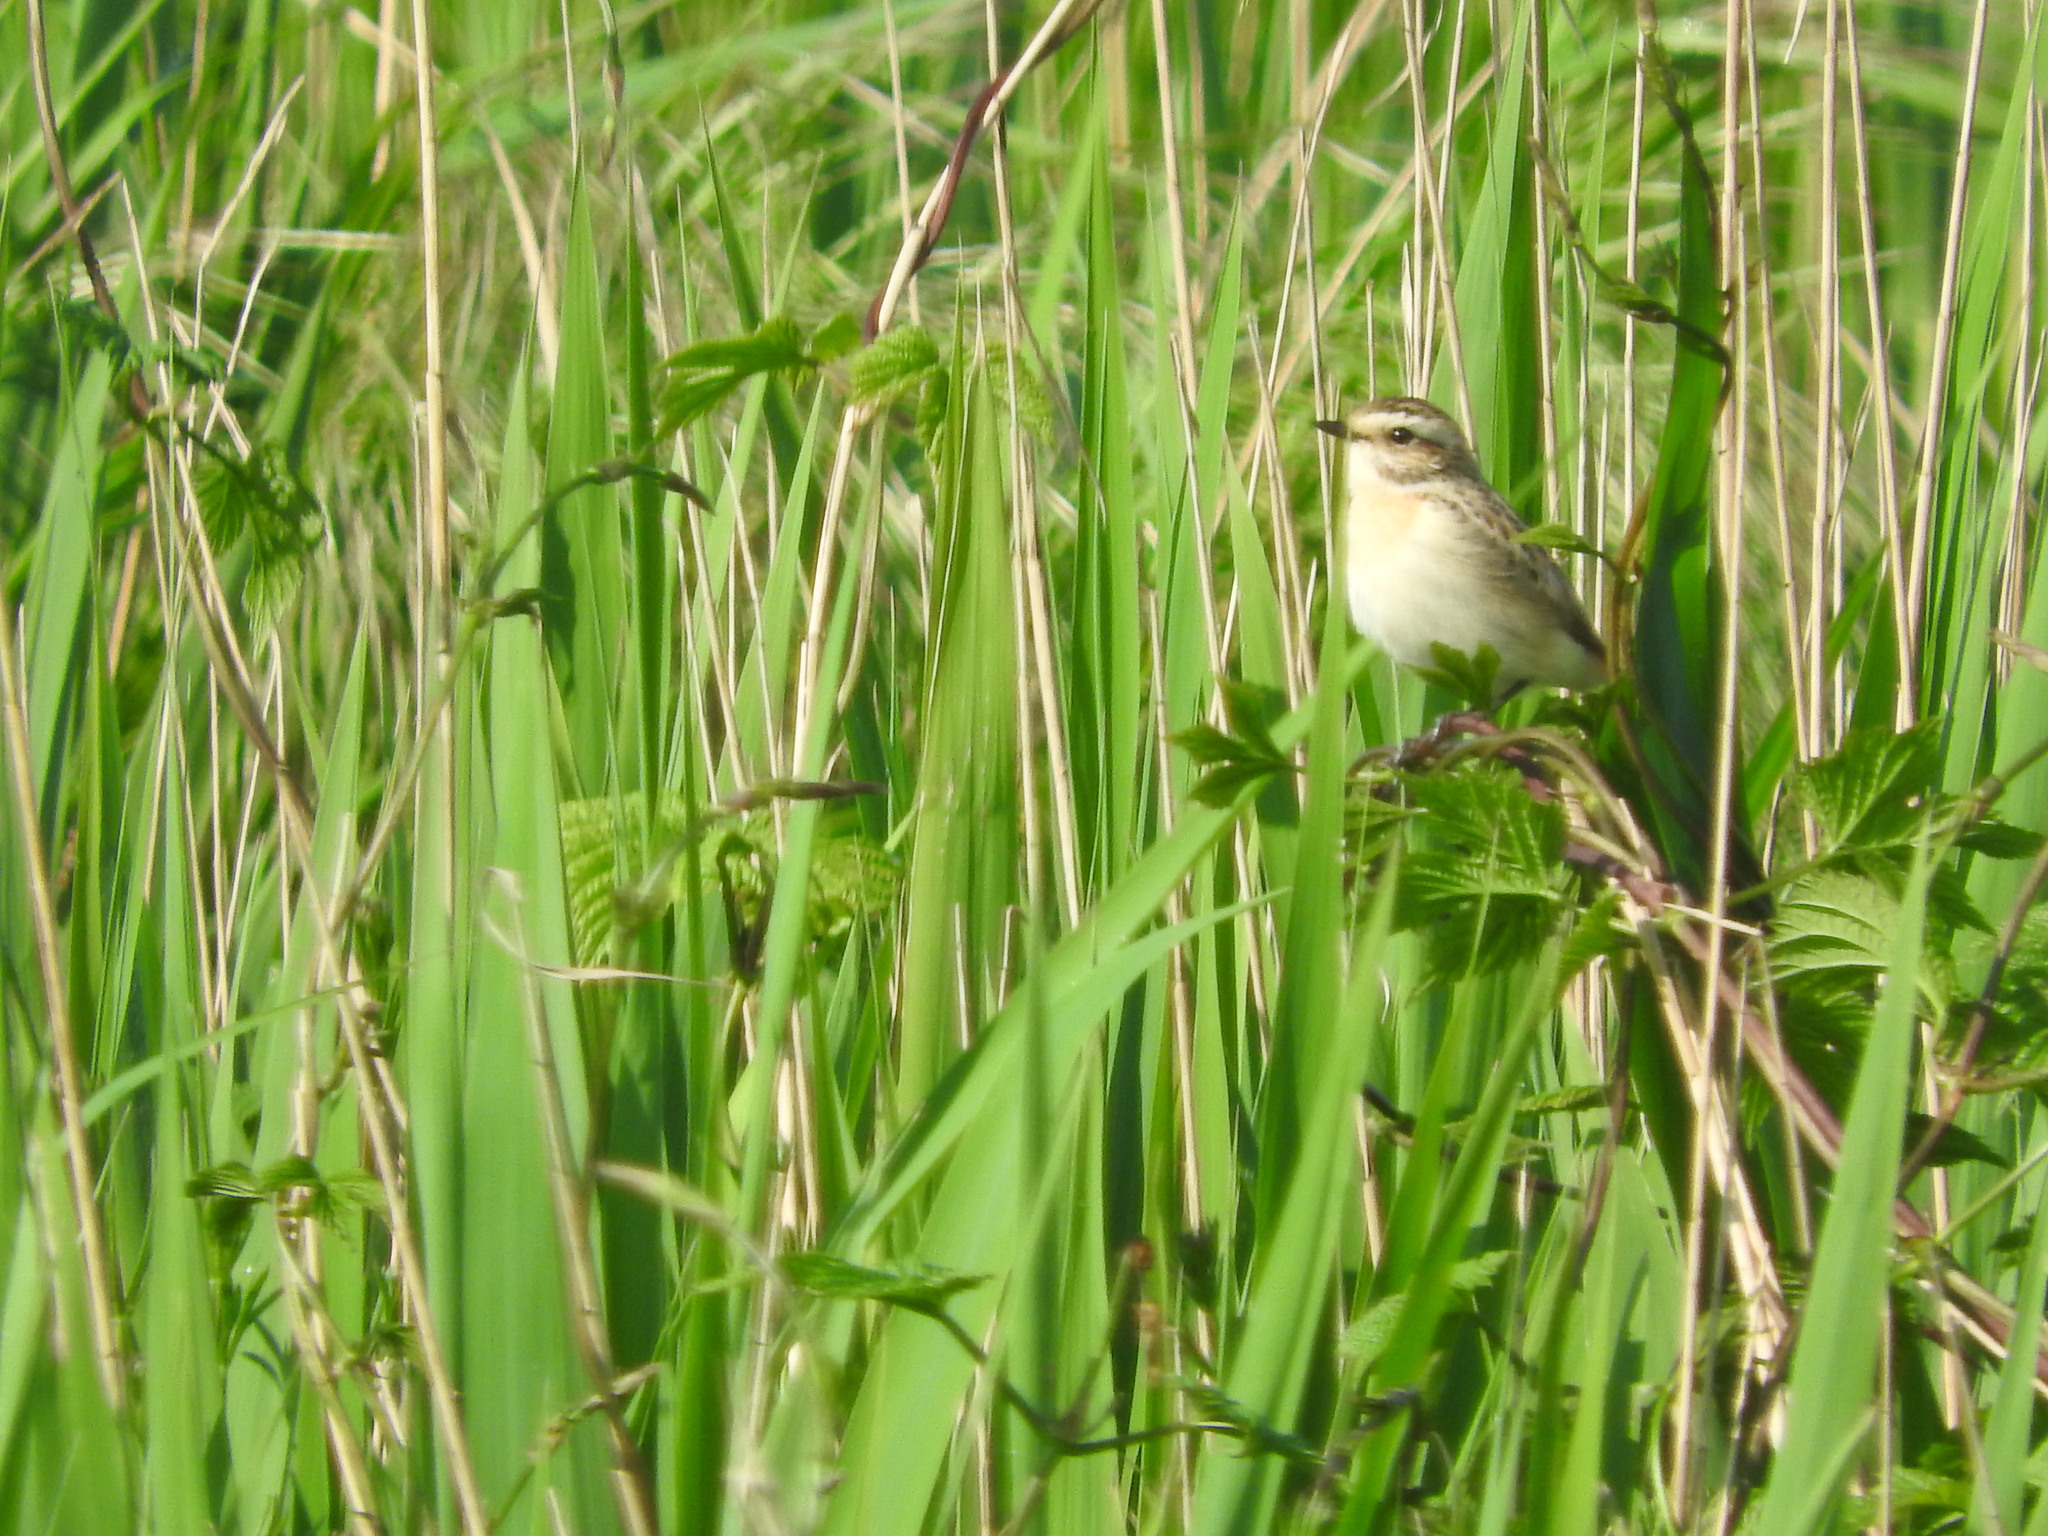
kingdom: Animalia
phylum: Chordata
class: Aves
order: Passeriformes
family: Muscicapidae
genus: Saxicola
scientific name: Saxicola rubetra
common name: Whinchat
